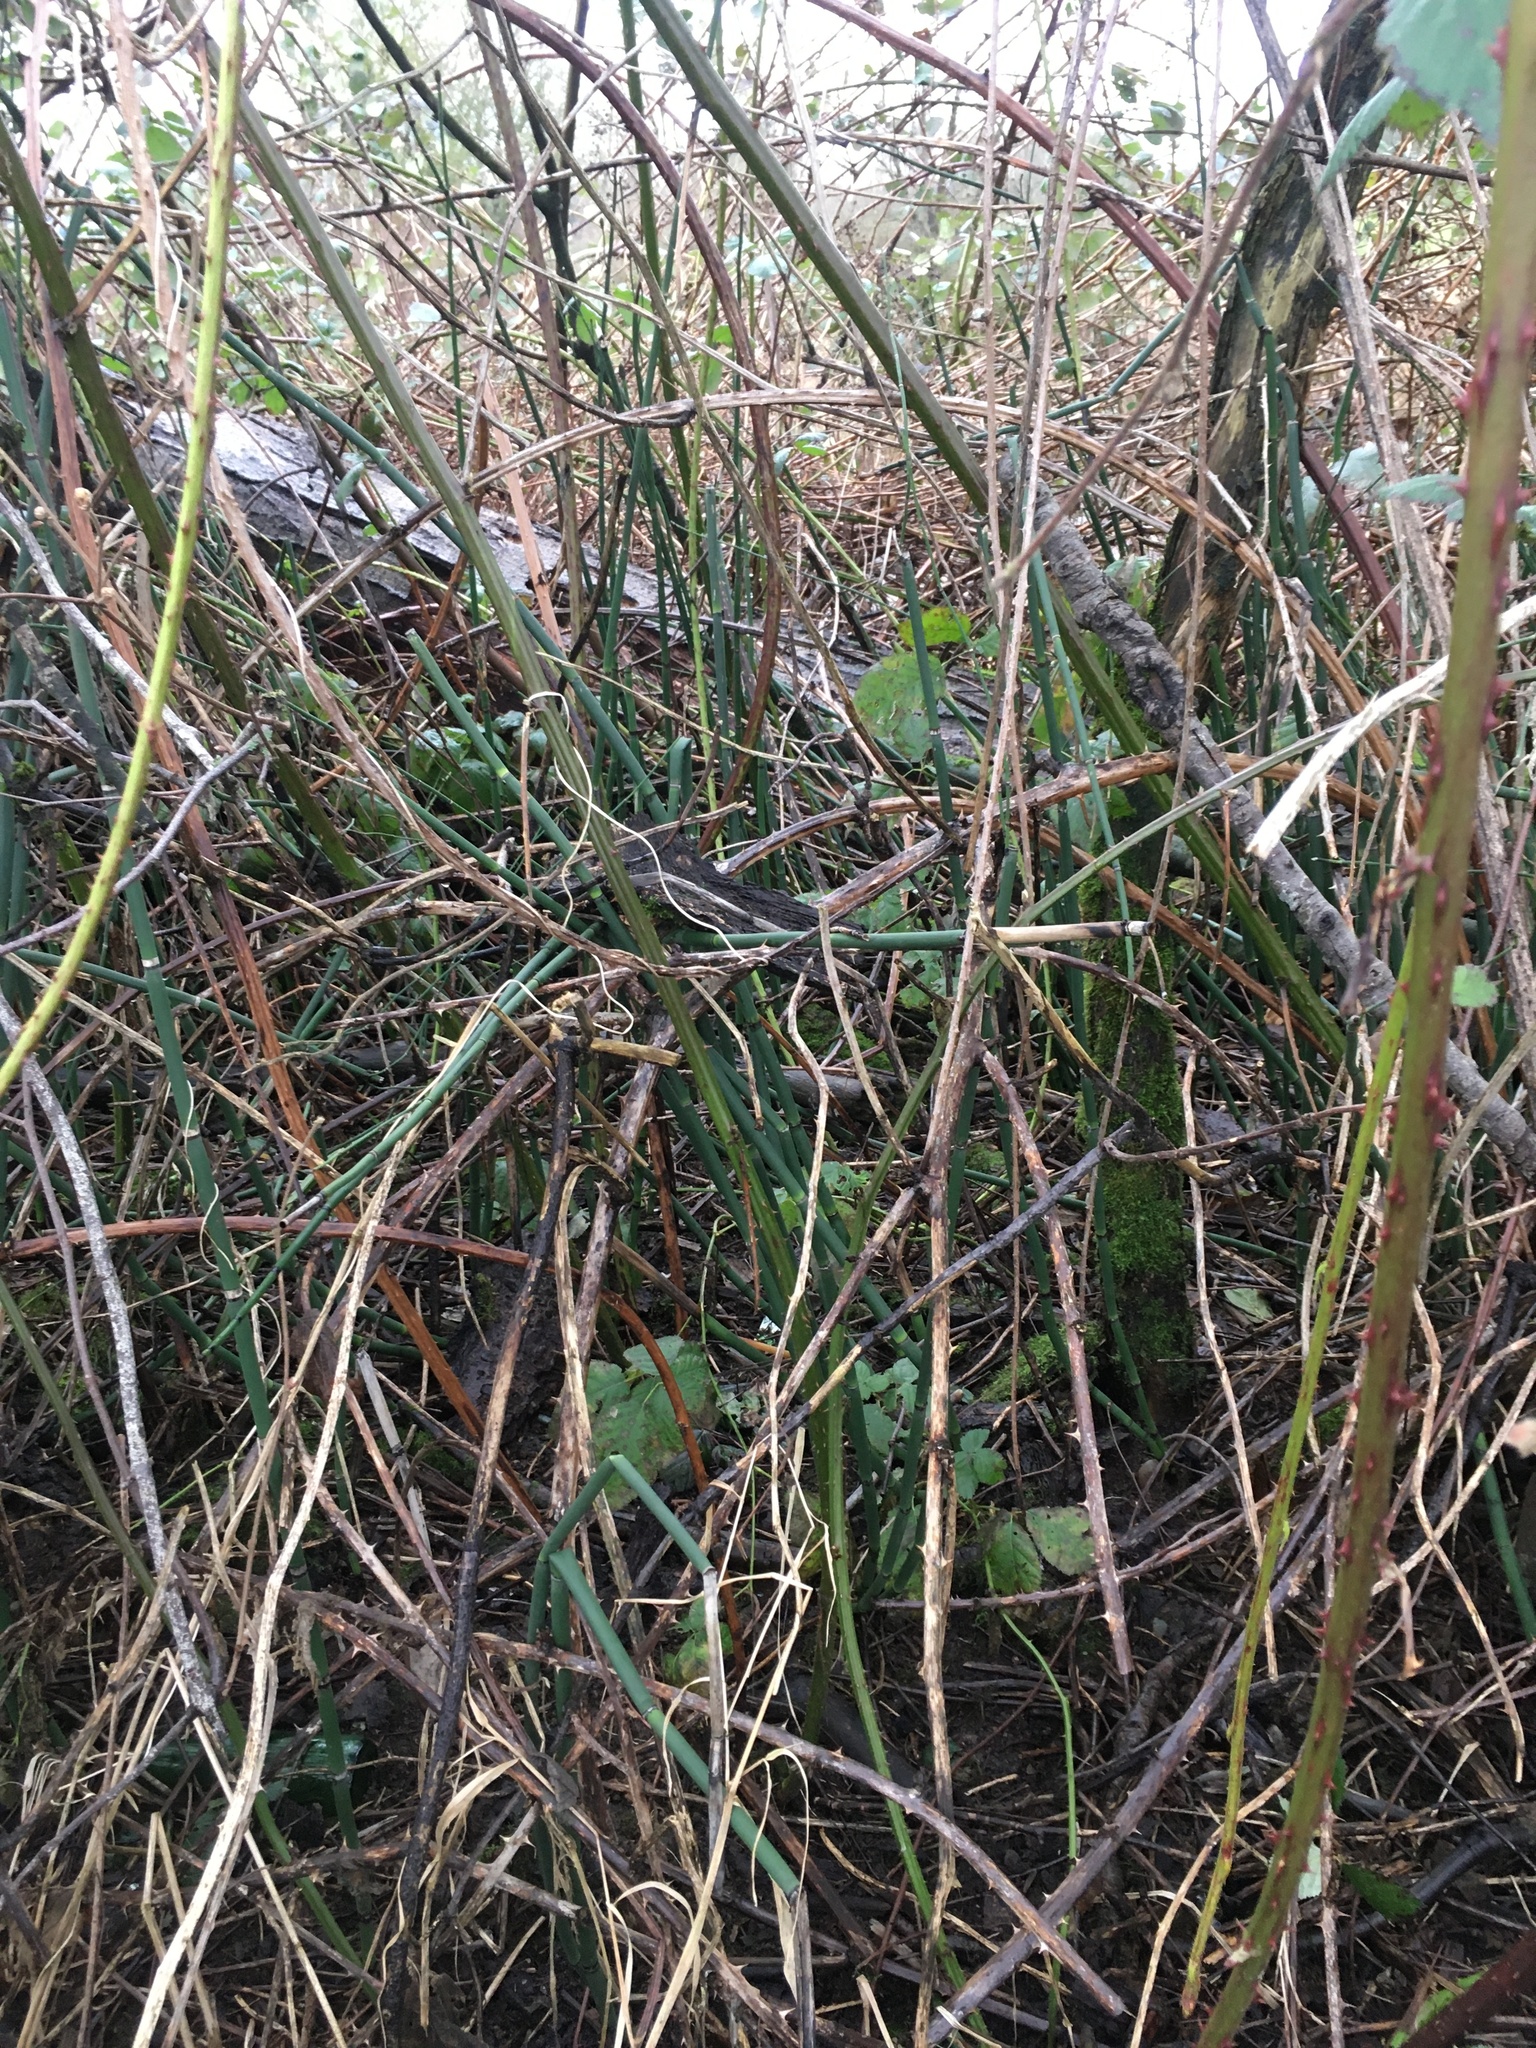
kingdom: Plantae
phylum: Tracheophyta
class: Polypodiopsida
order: Equisetales
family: Equisetaceae
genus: Equisetum
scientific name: Equisetum praealtum
